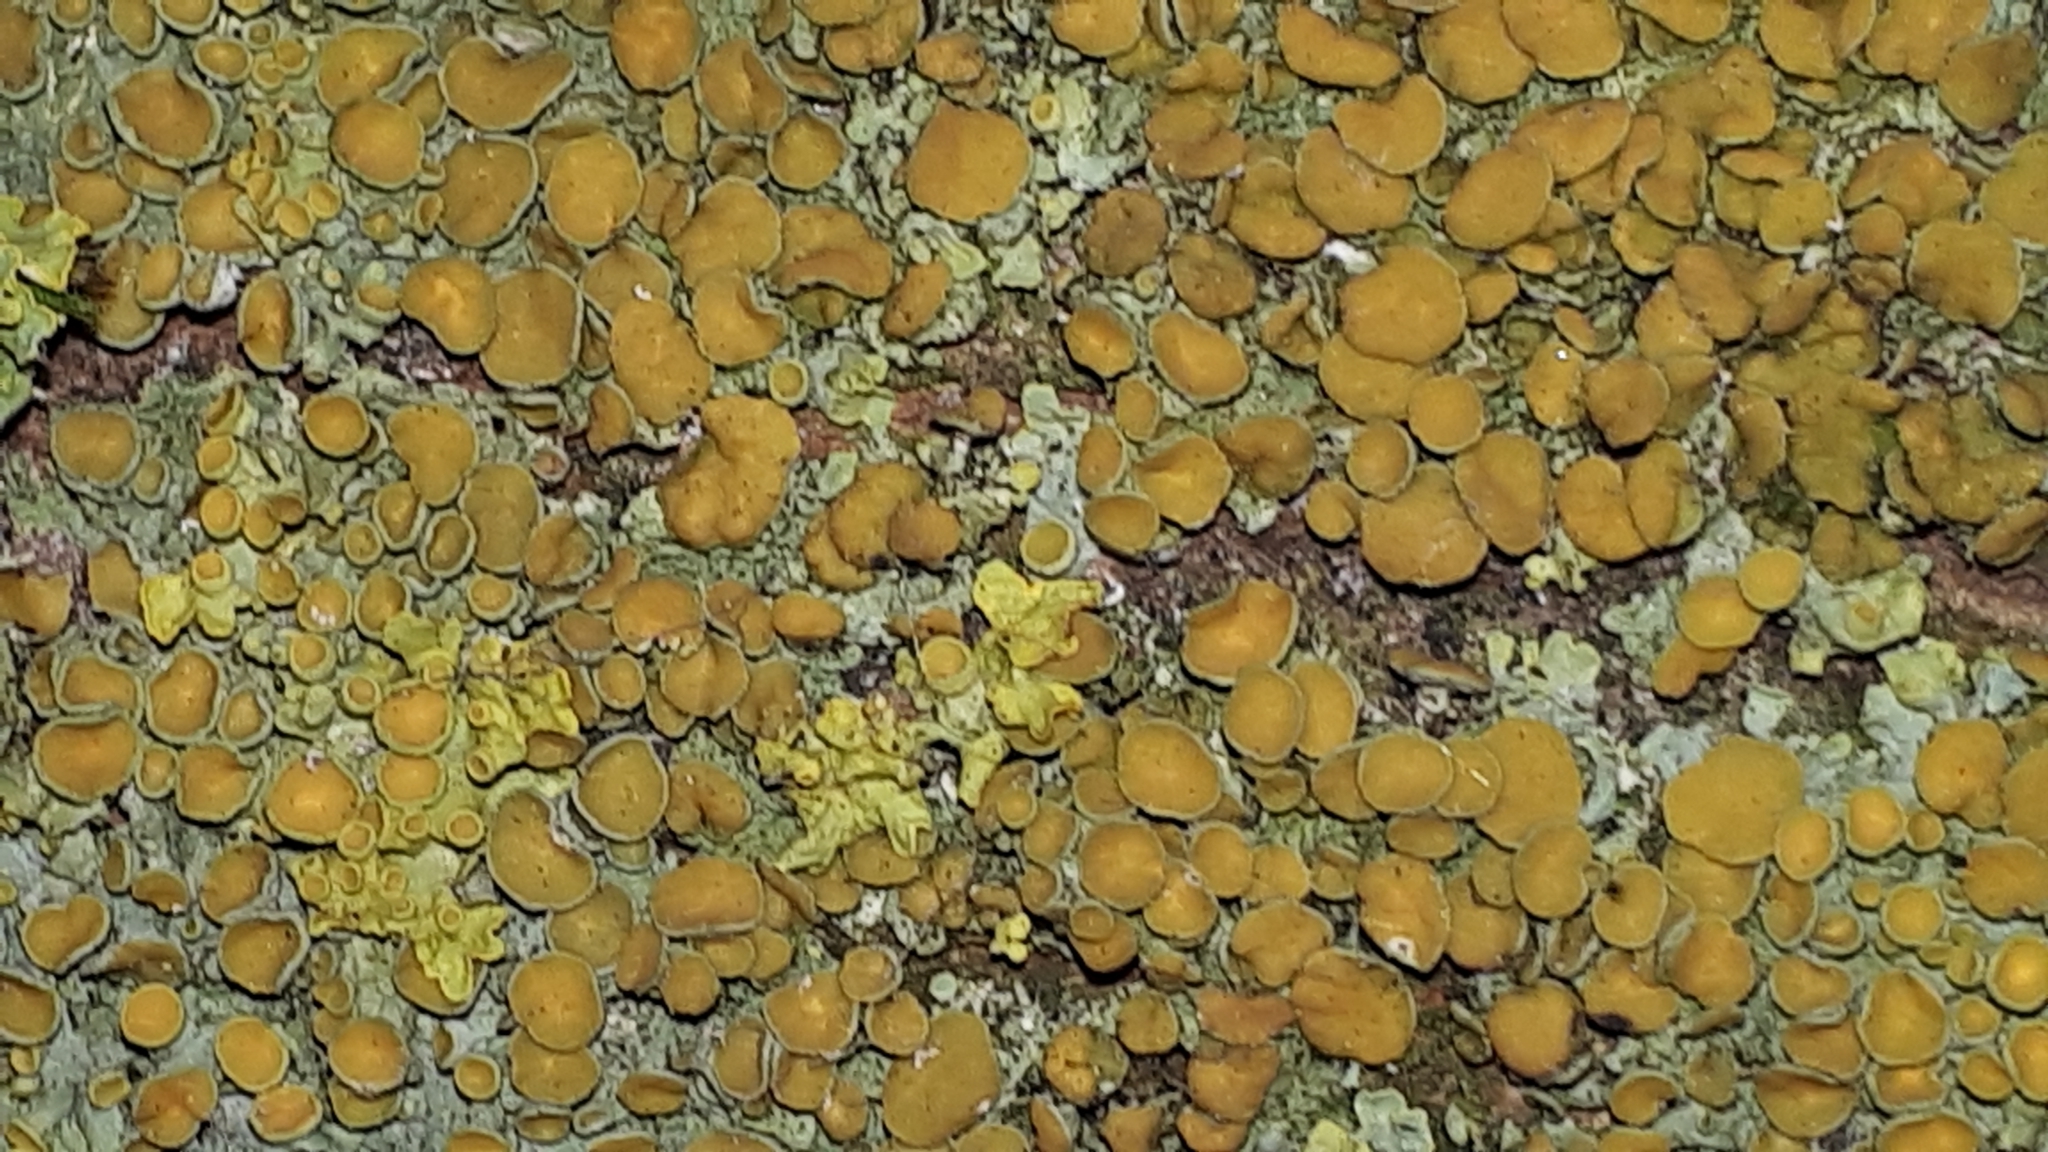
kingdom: Fungi
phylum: Ascomycota
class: Lecanoromycetes
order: Teloschistales
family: Teloschistaceae
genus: Xanthoria
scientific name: Xanthoria parietina
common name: Common orange lichen
